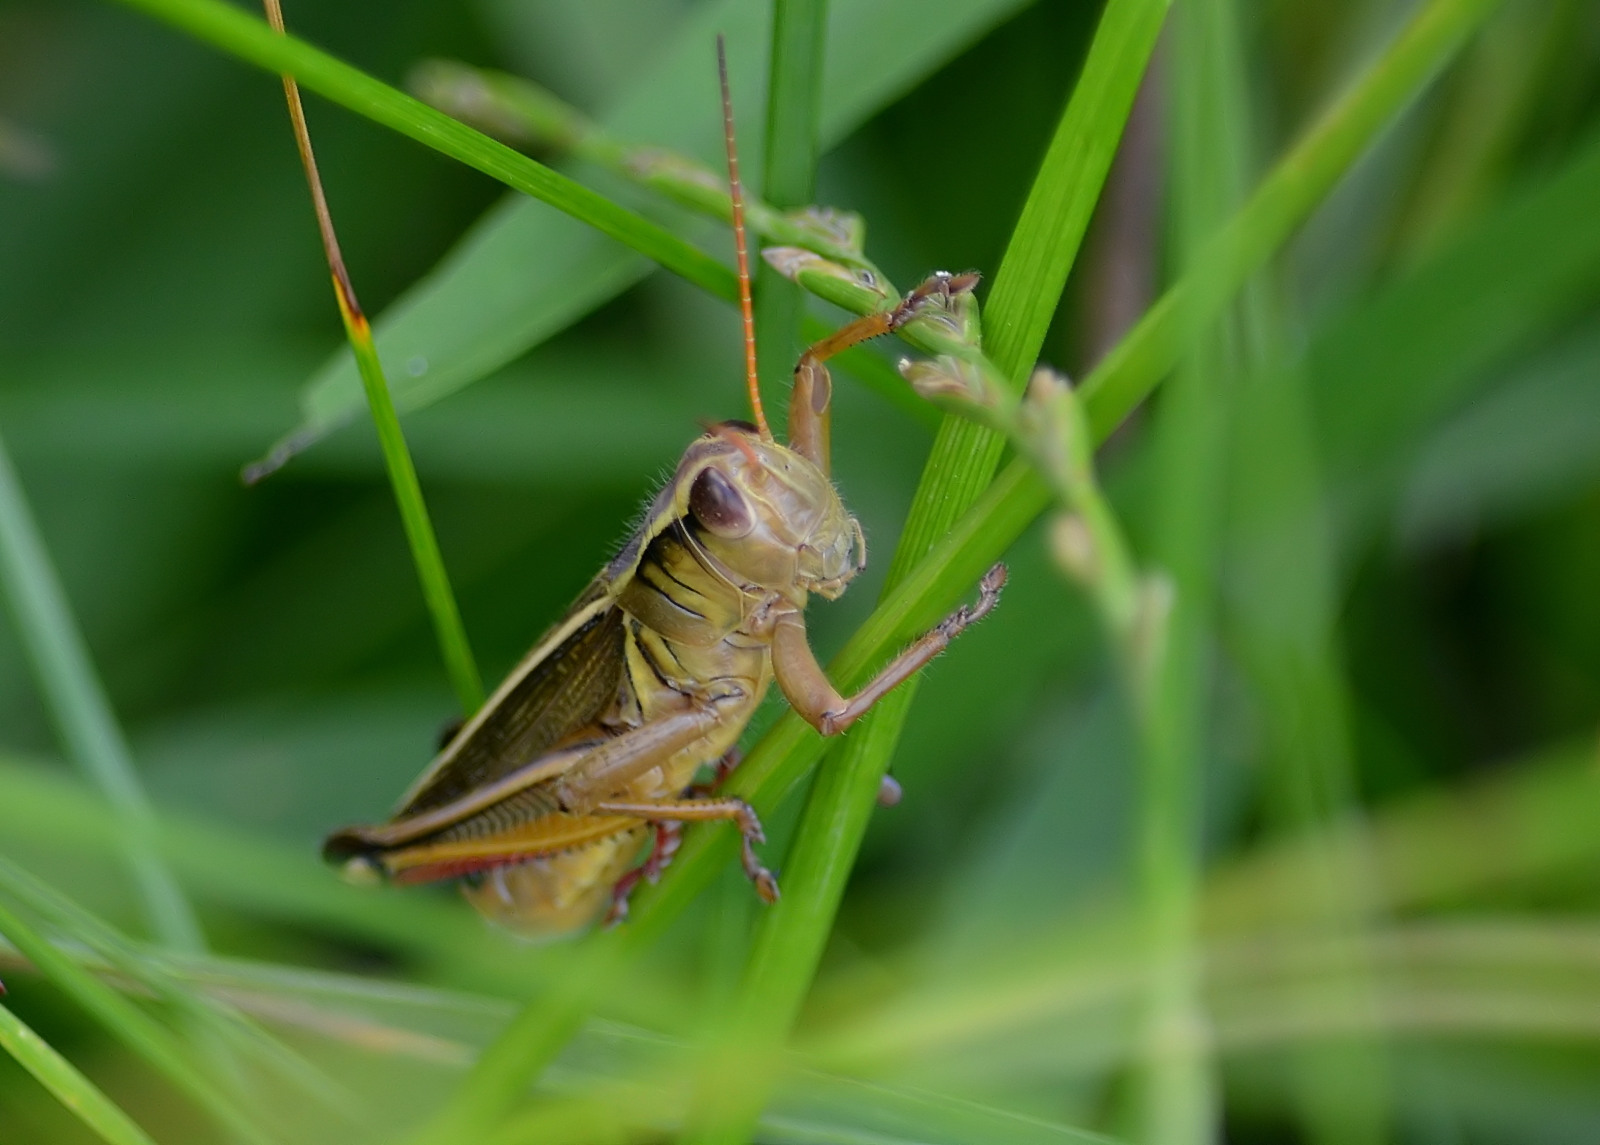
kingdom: Animalia
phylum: Arthropoda
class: Insecta
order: Orthoptera
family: Acrididae
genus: Melanoplus
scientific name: Melanoplus bivittatus
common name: Two-striped grasshopper
